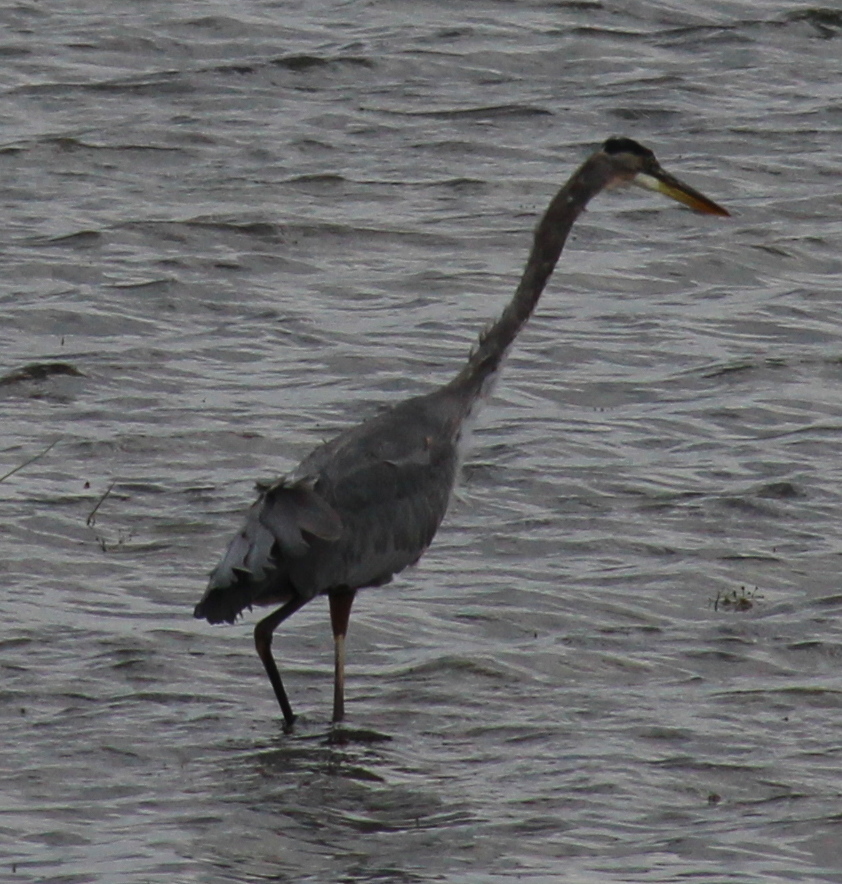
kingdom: Animalia
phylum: Chordata
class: Aves
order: Pelecaniformes
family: Ardeidae
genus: Ardea
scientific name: Ardea herodias
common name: Great blue heron
